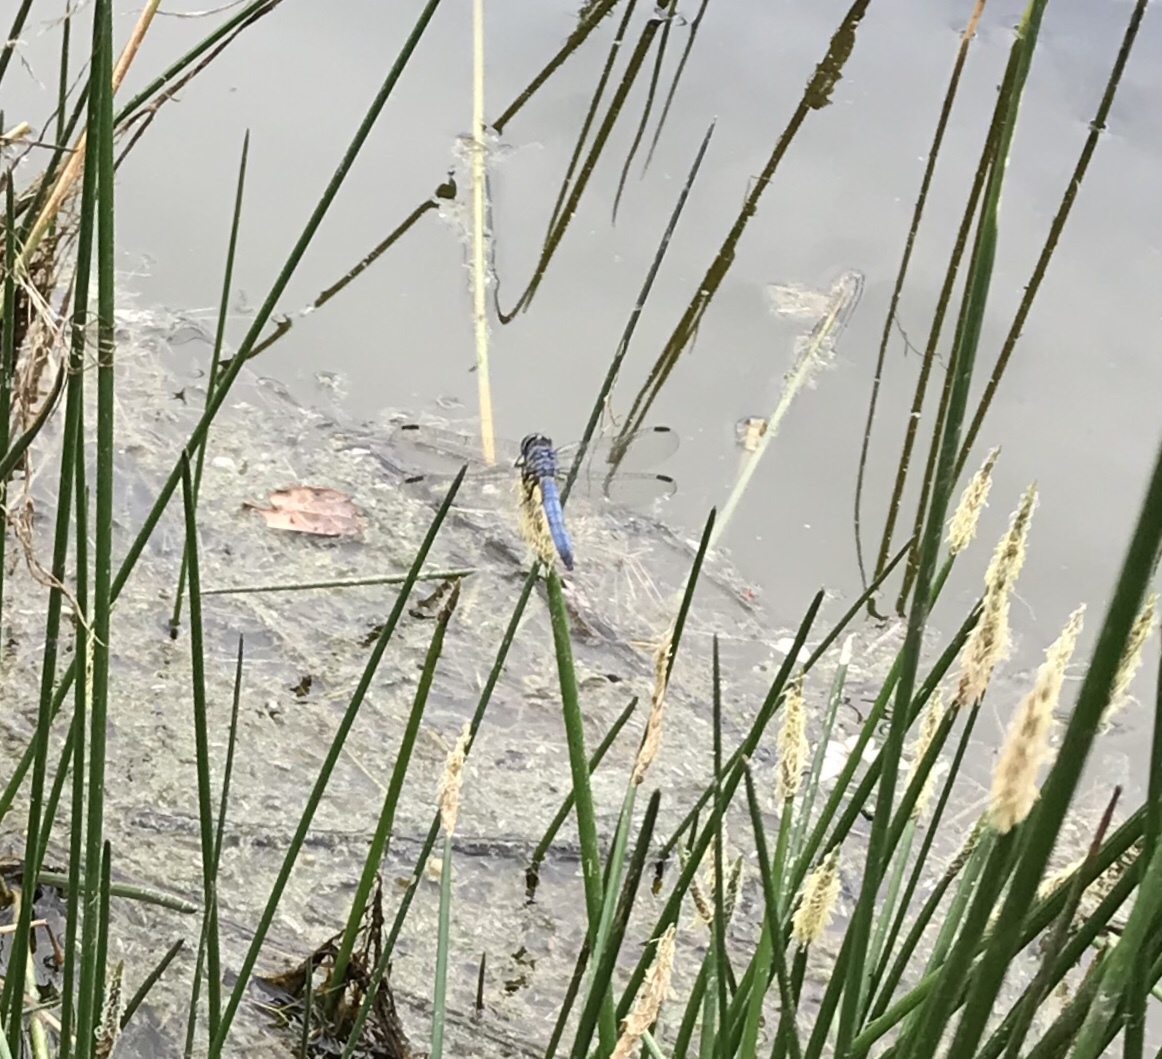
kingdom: Animalia
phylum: Arthropoda
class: Insecta
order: Odonata
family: Libellulidae
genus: Pachydiplax
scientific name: Pachydiplax longipennis
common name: Blue dasher
